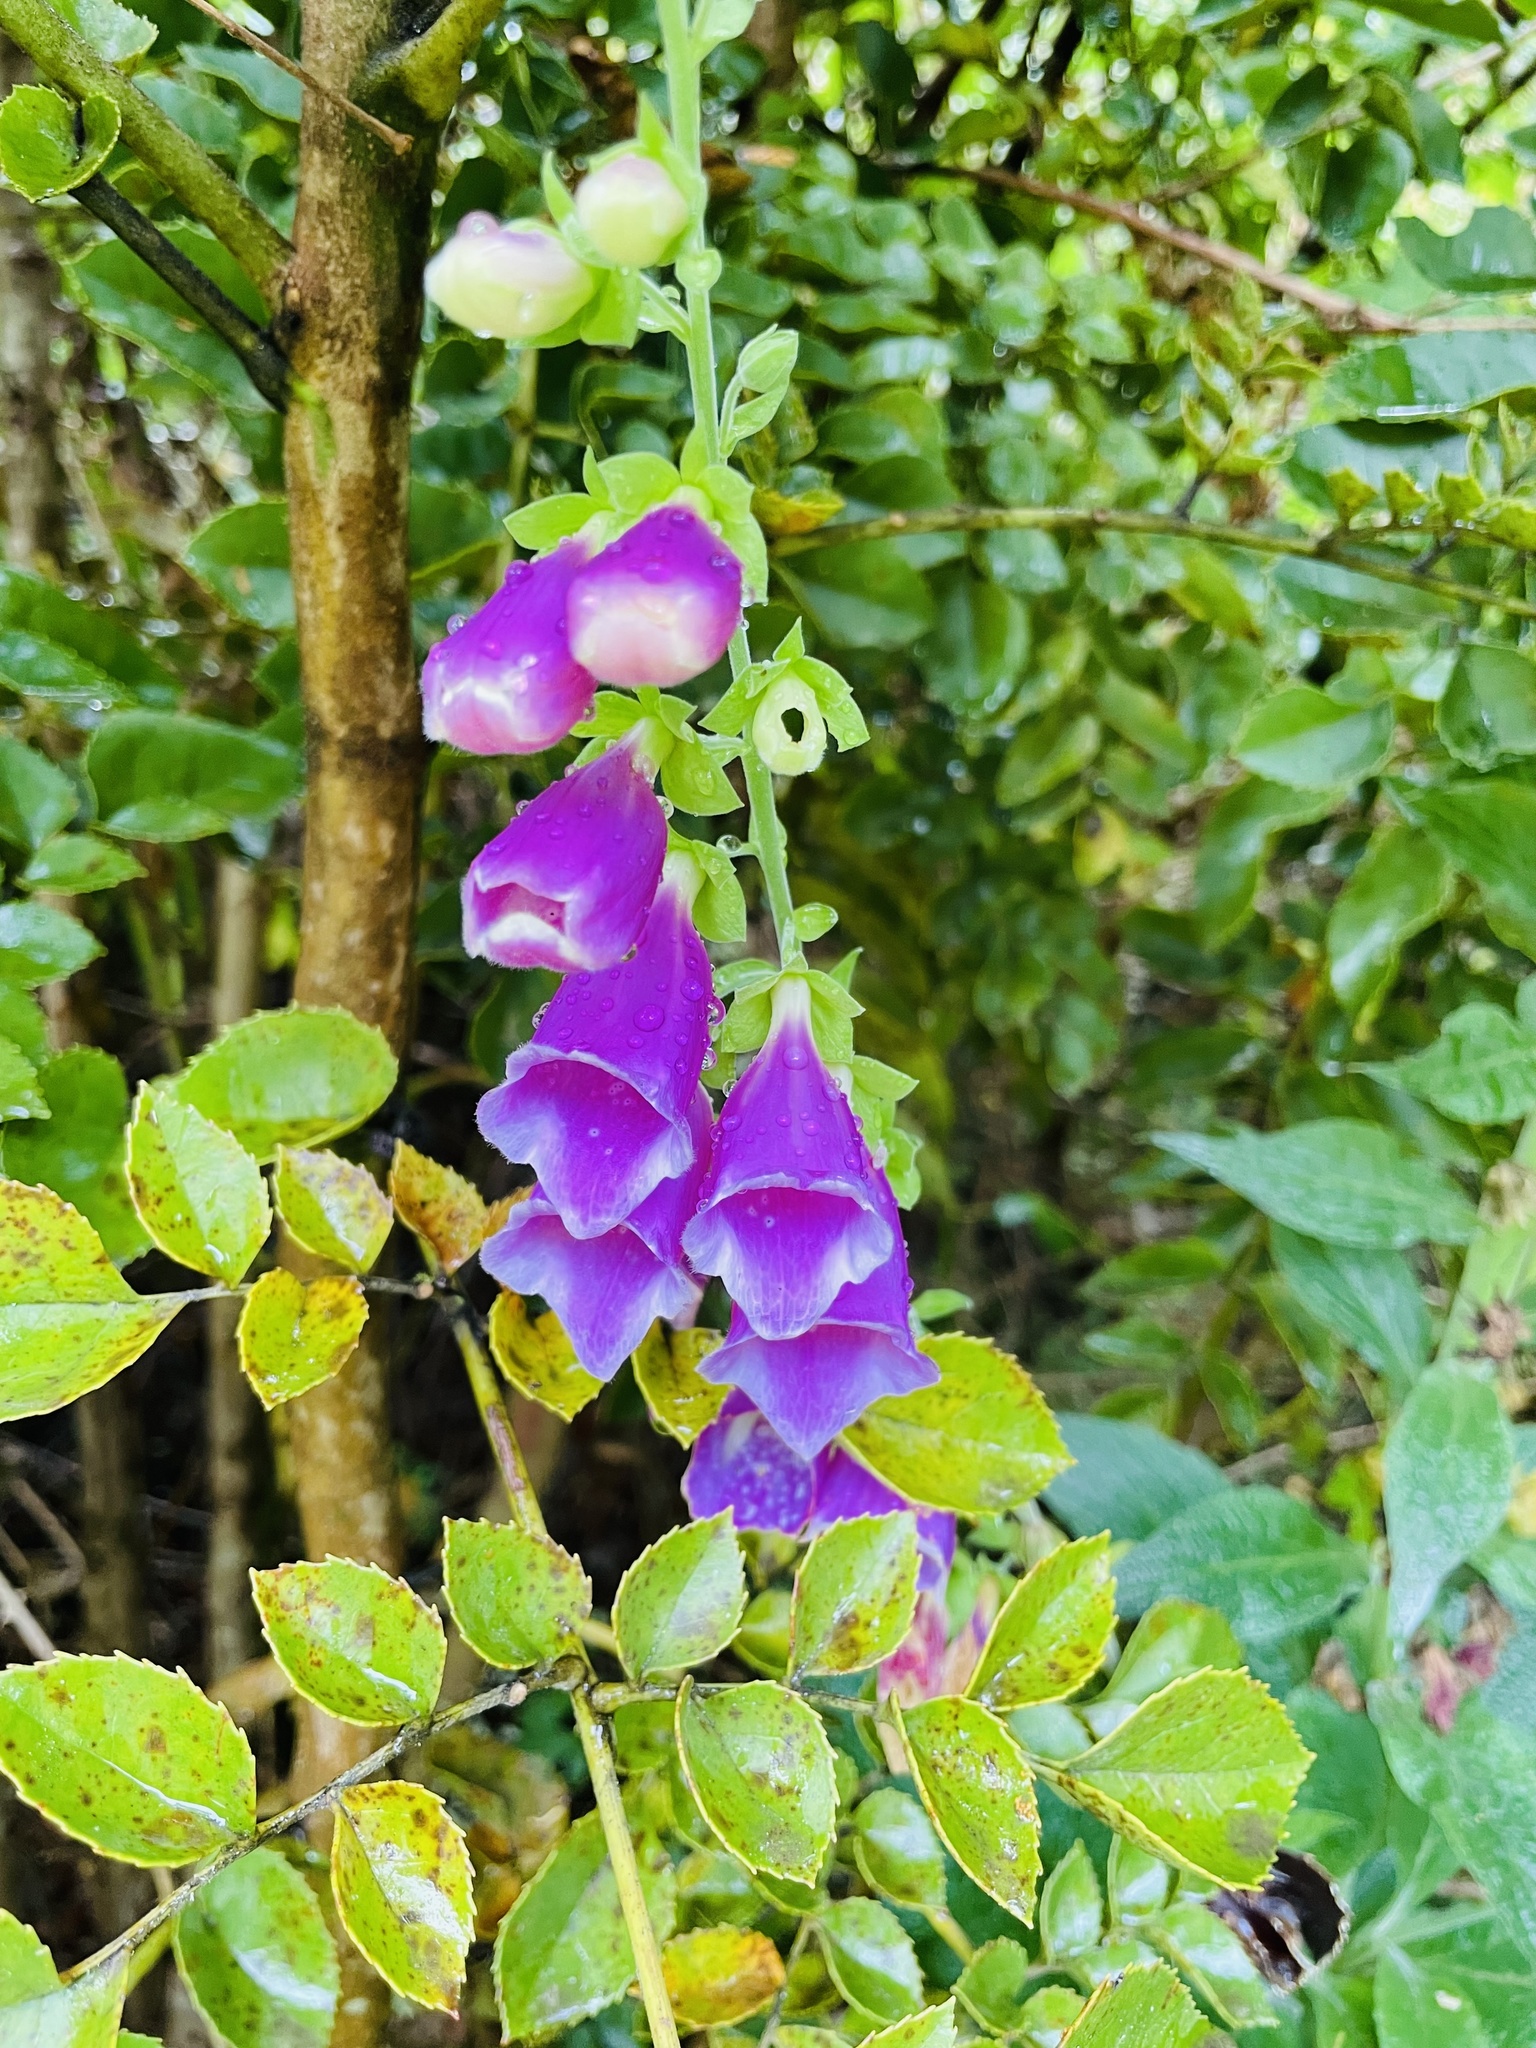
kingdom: Plantae
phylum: Tracheophyta
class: Magnoliopsida
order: Lamiales
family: Plantaginaceae
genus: Digitalis
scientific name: Digitalis purpurea
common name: Foxglove
